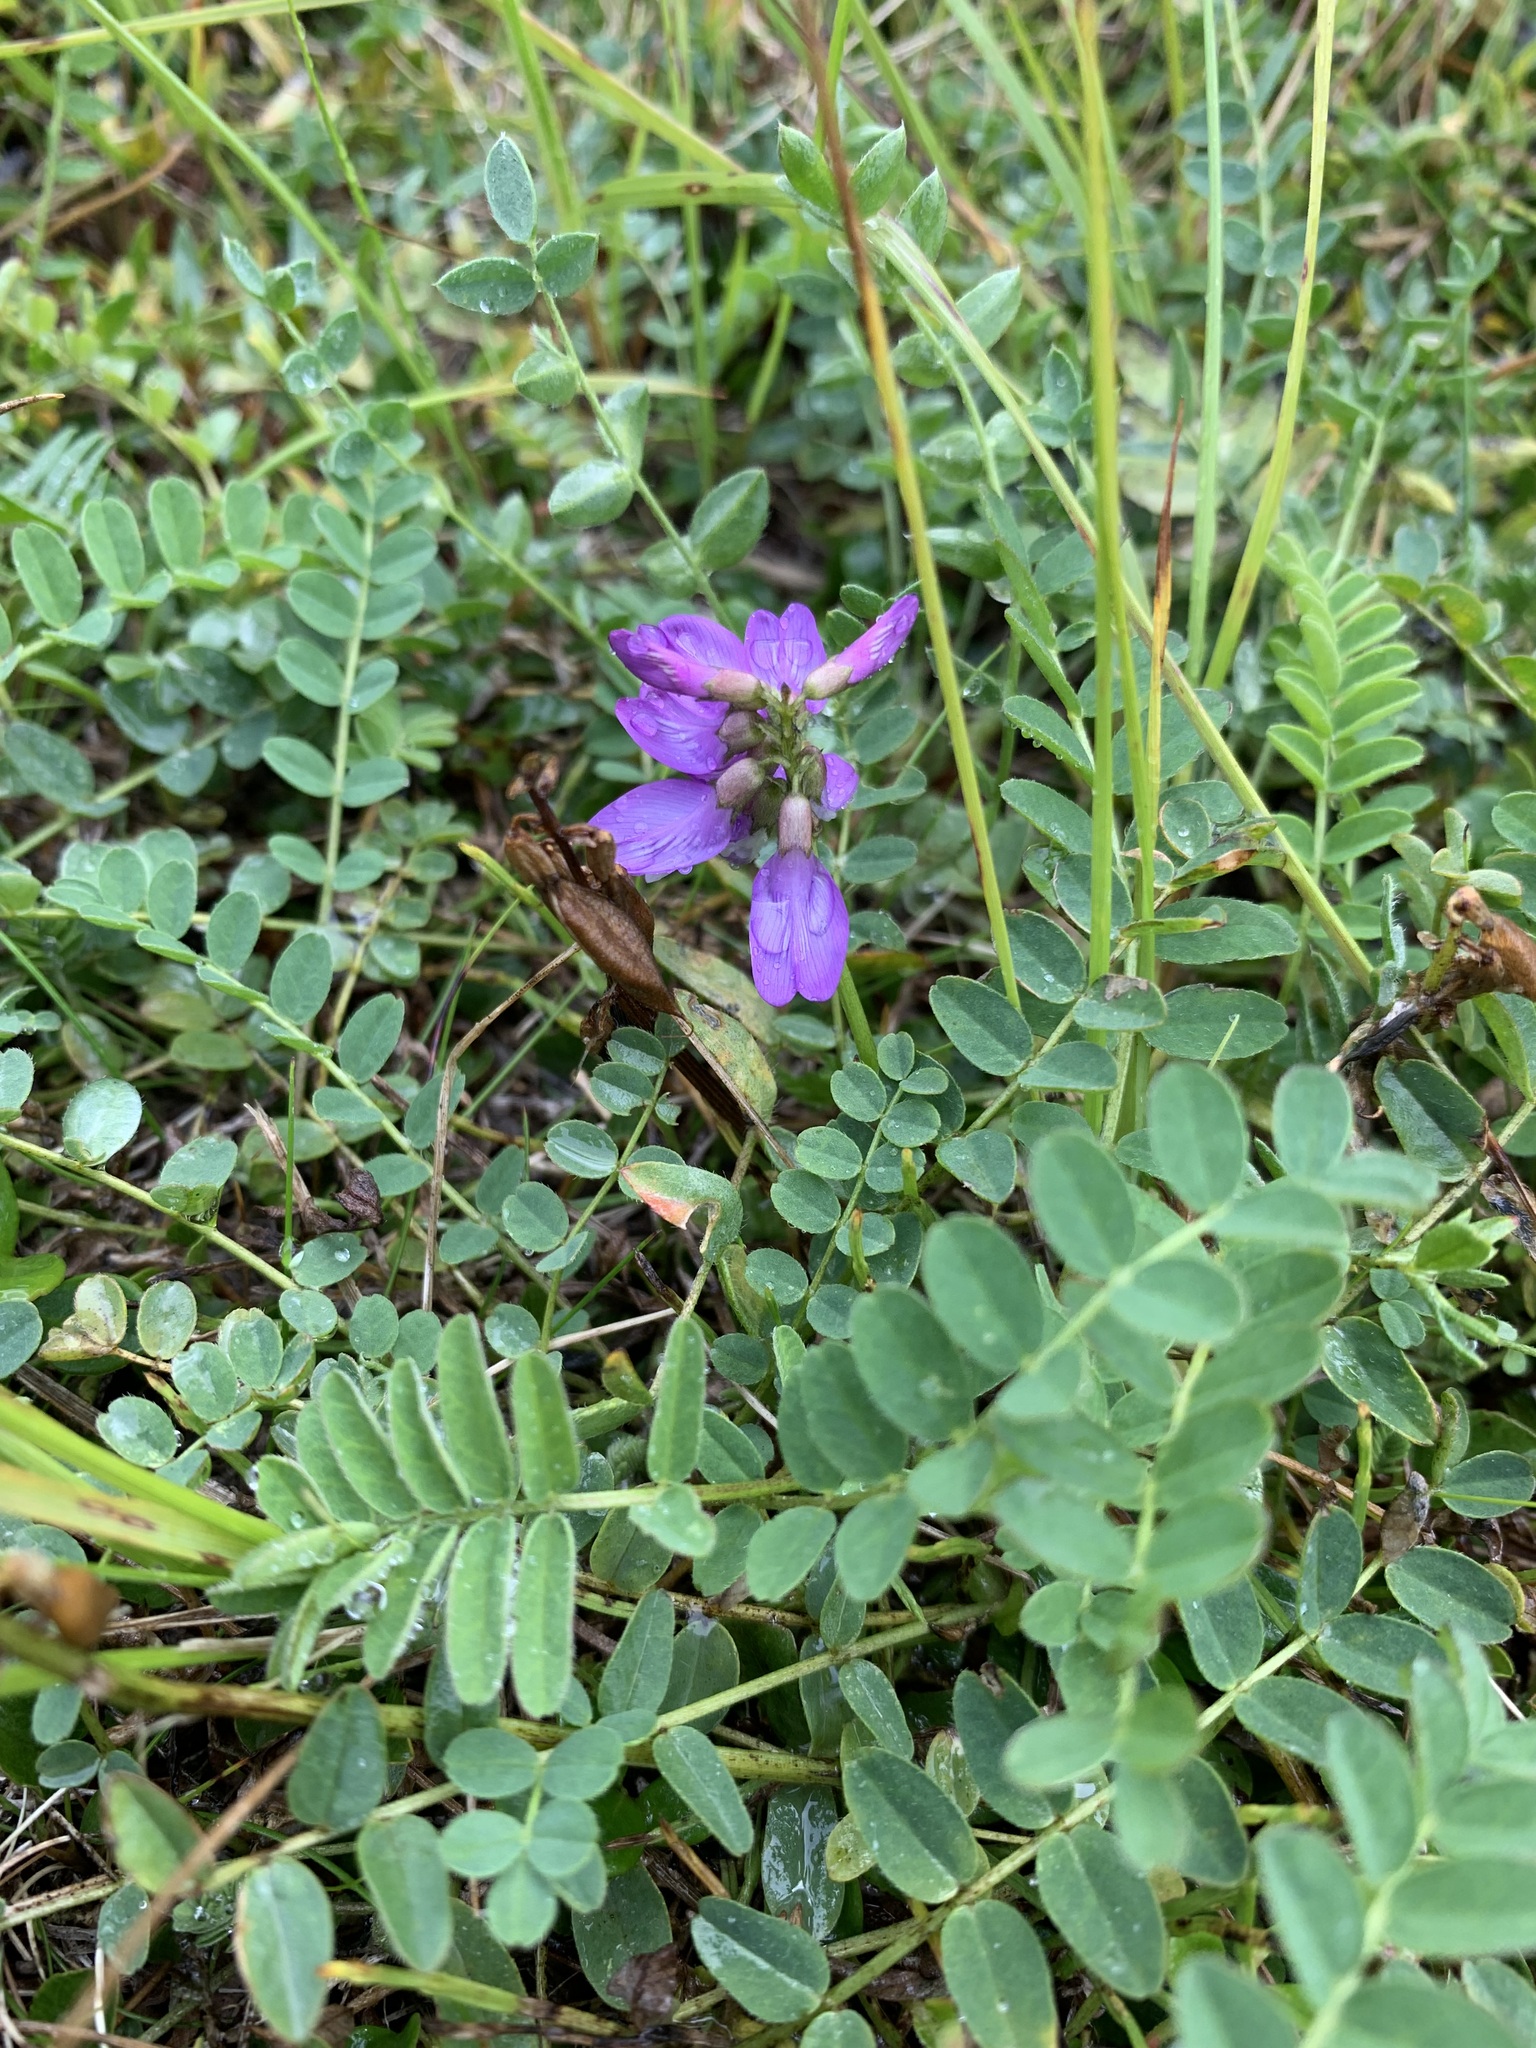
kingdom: Plantae
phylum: Tracheophyta
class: Magnoliopsida
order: Fabales
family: Fabaceae
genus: Astragalus
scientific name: Astragalus alpinus
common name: Alpine milk-vetch
